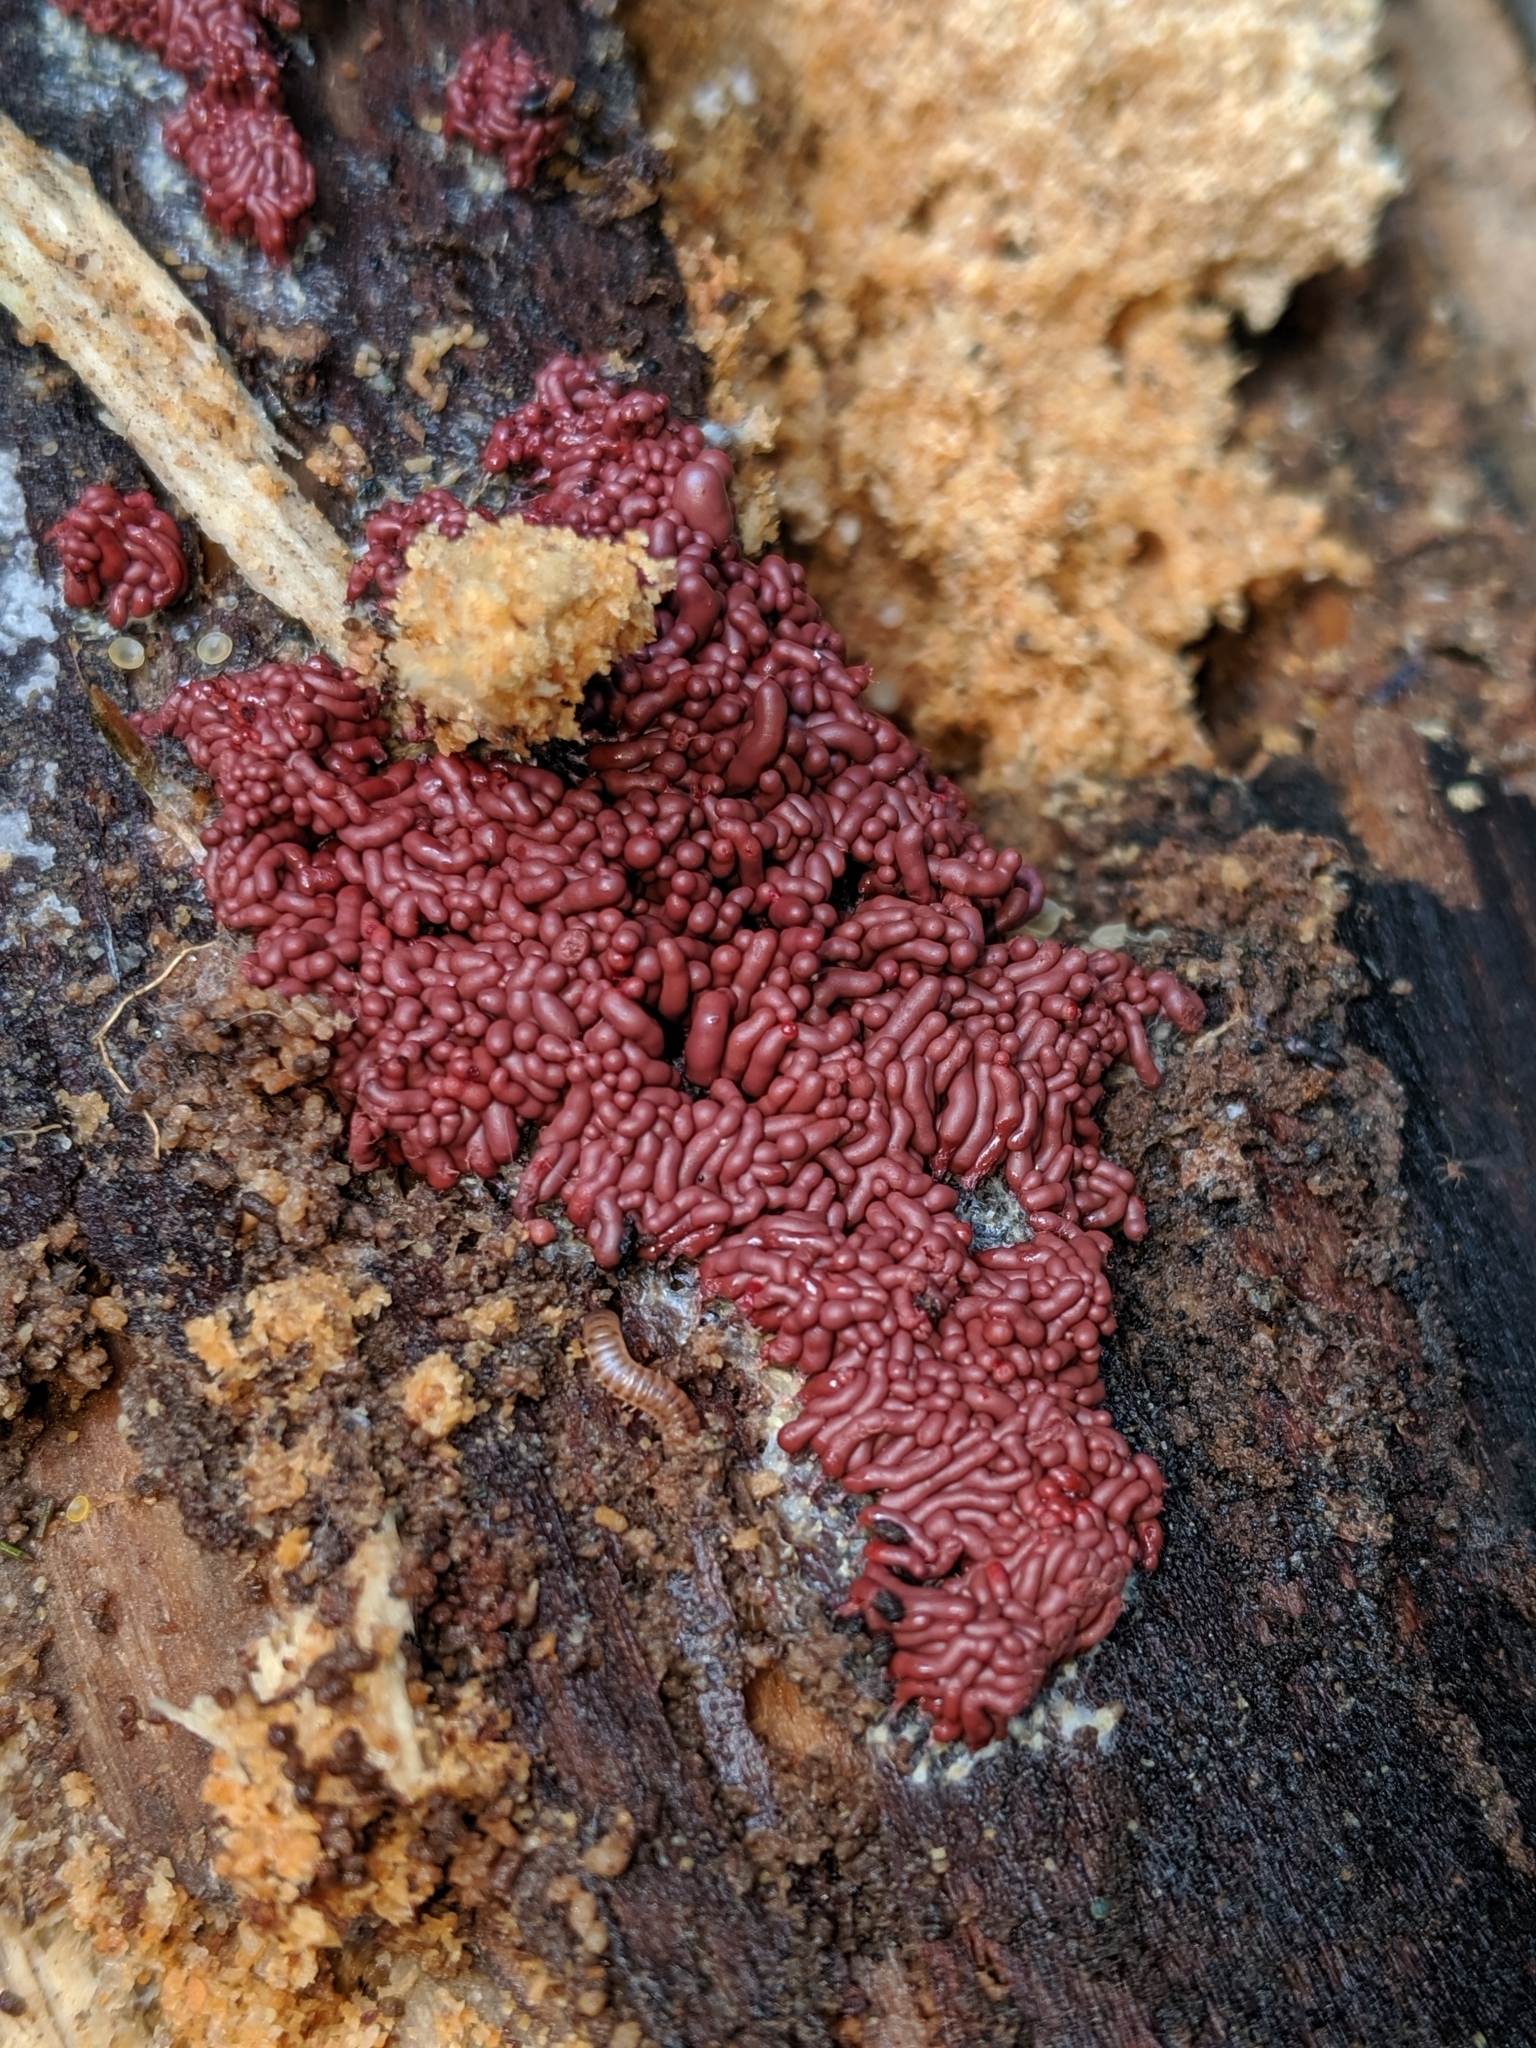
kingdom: Protozoa
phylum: Mycetozoa
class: Myxomycetes
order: Trichiales
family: Arcyriaceae
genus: Arcyria
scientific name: Arcyria stipata
